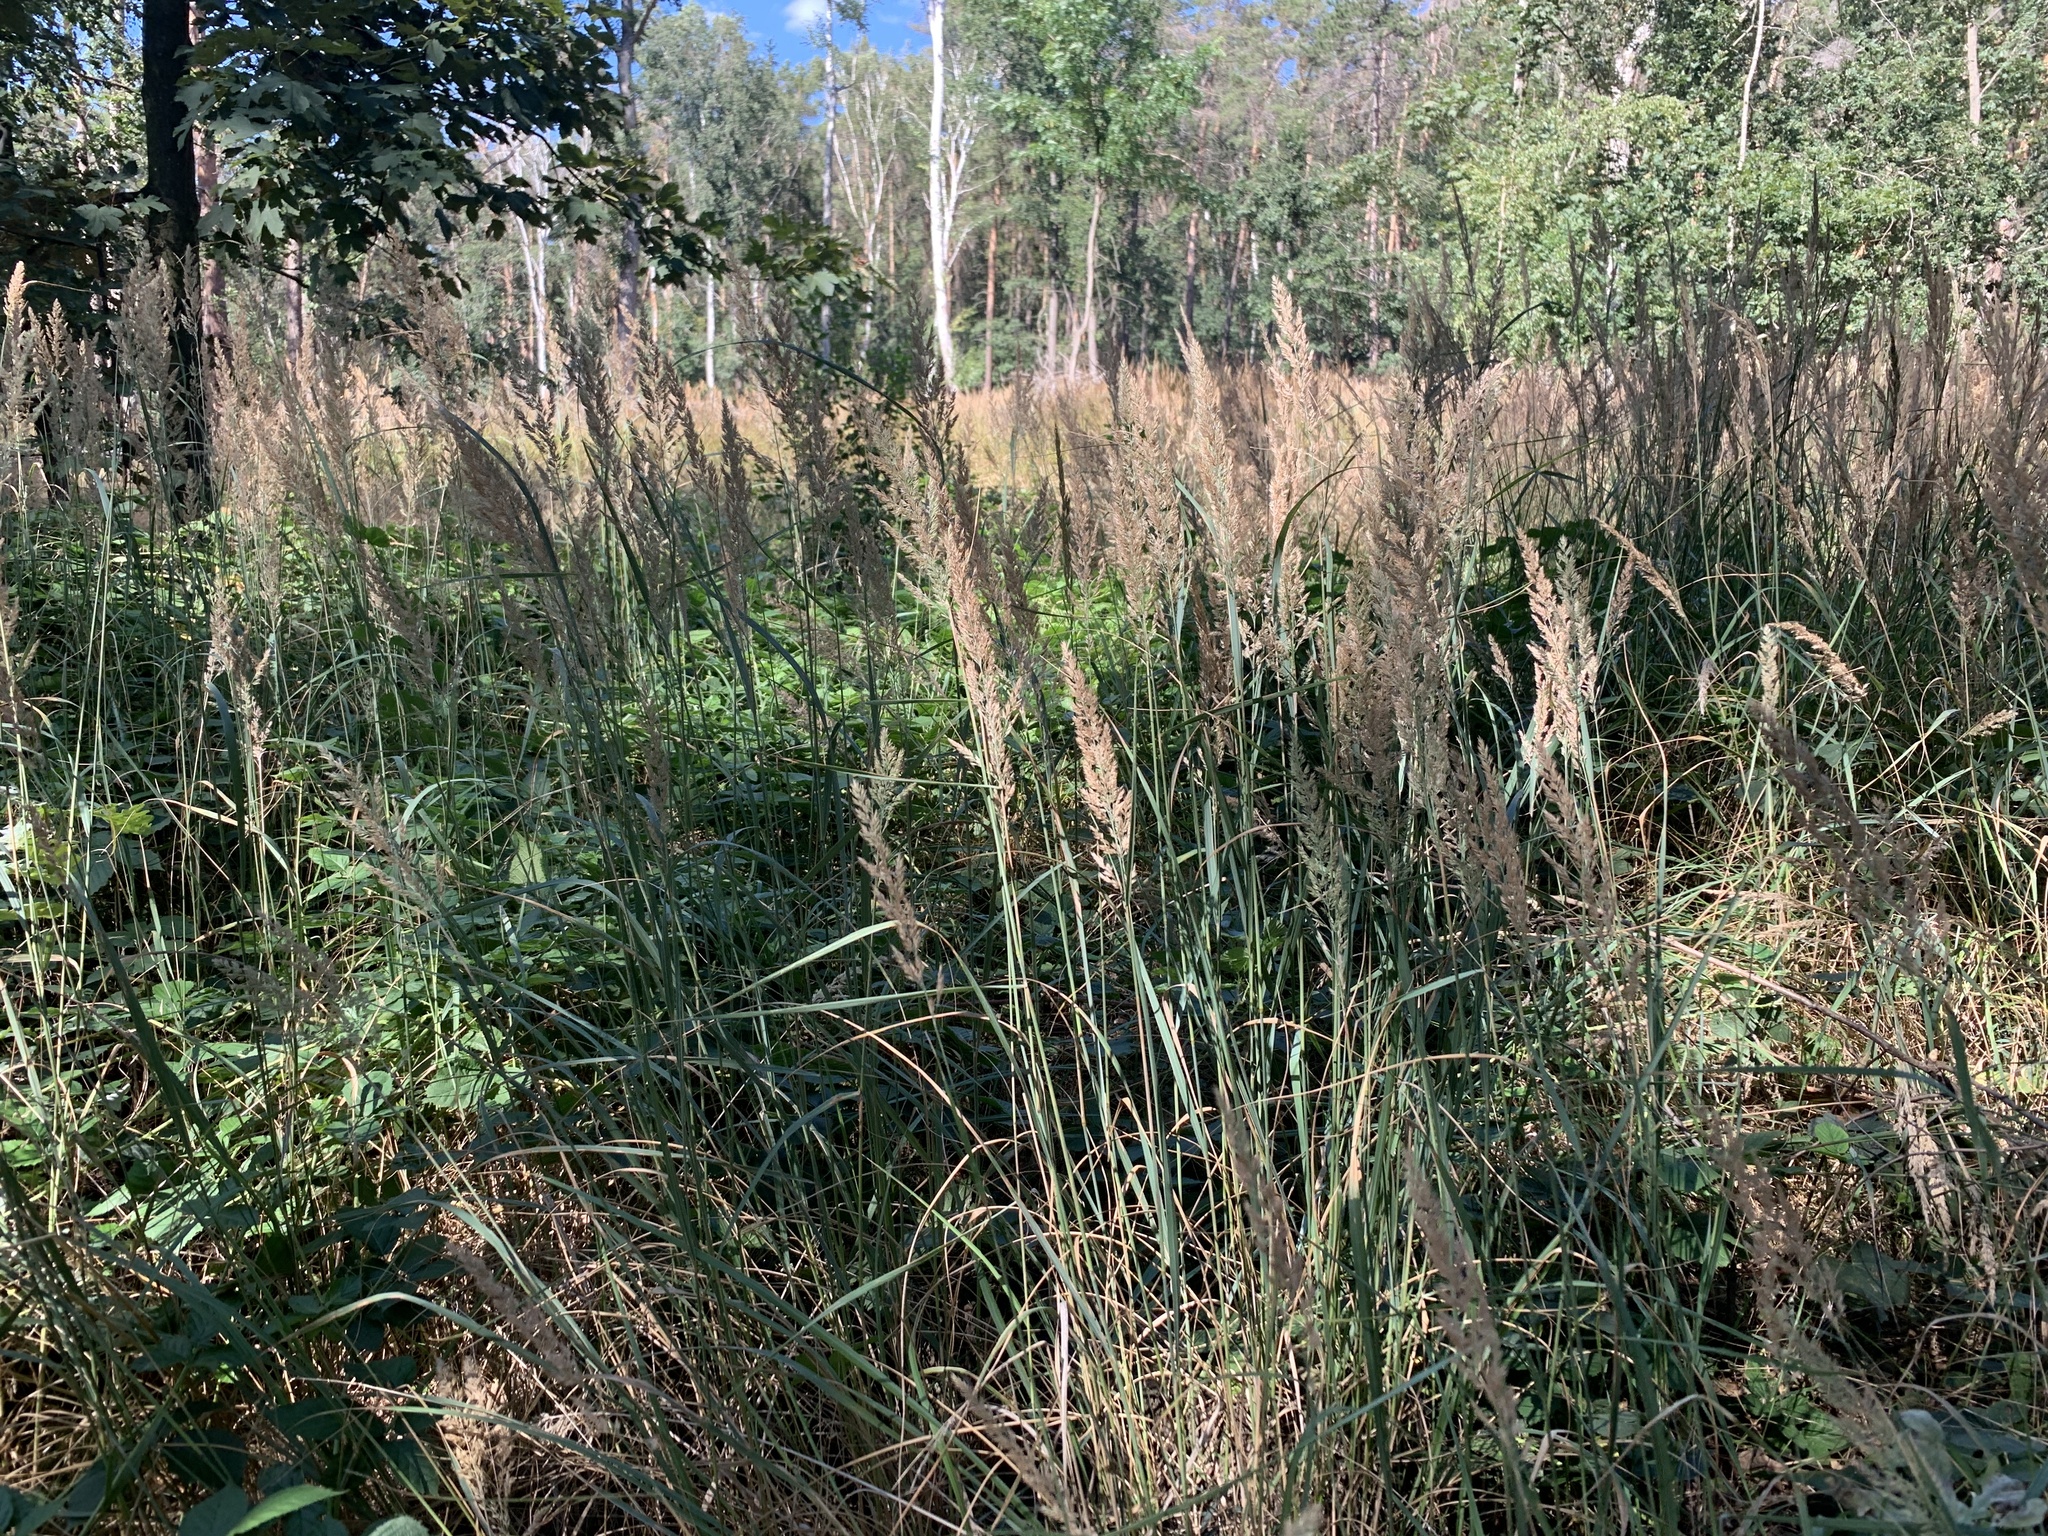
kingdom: Plantae
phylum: Tracheophyta
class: Liliopsida
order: Poales
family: Poaceae
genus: Calamagrostis
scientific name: Calamagrostis epigejos
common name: Wood small-reed
